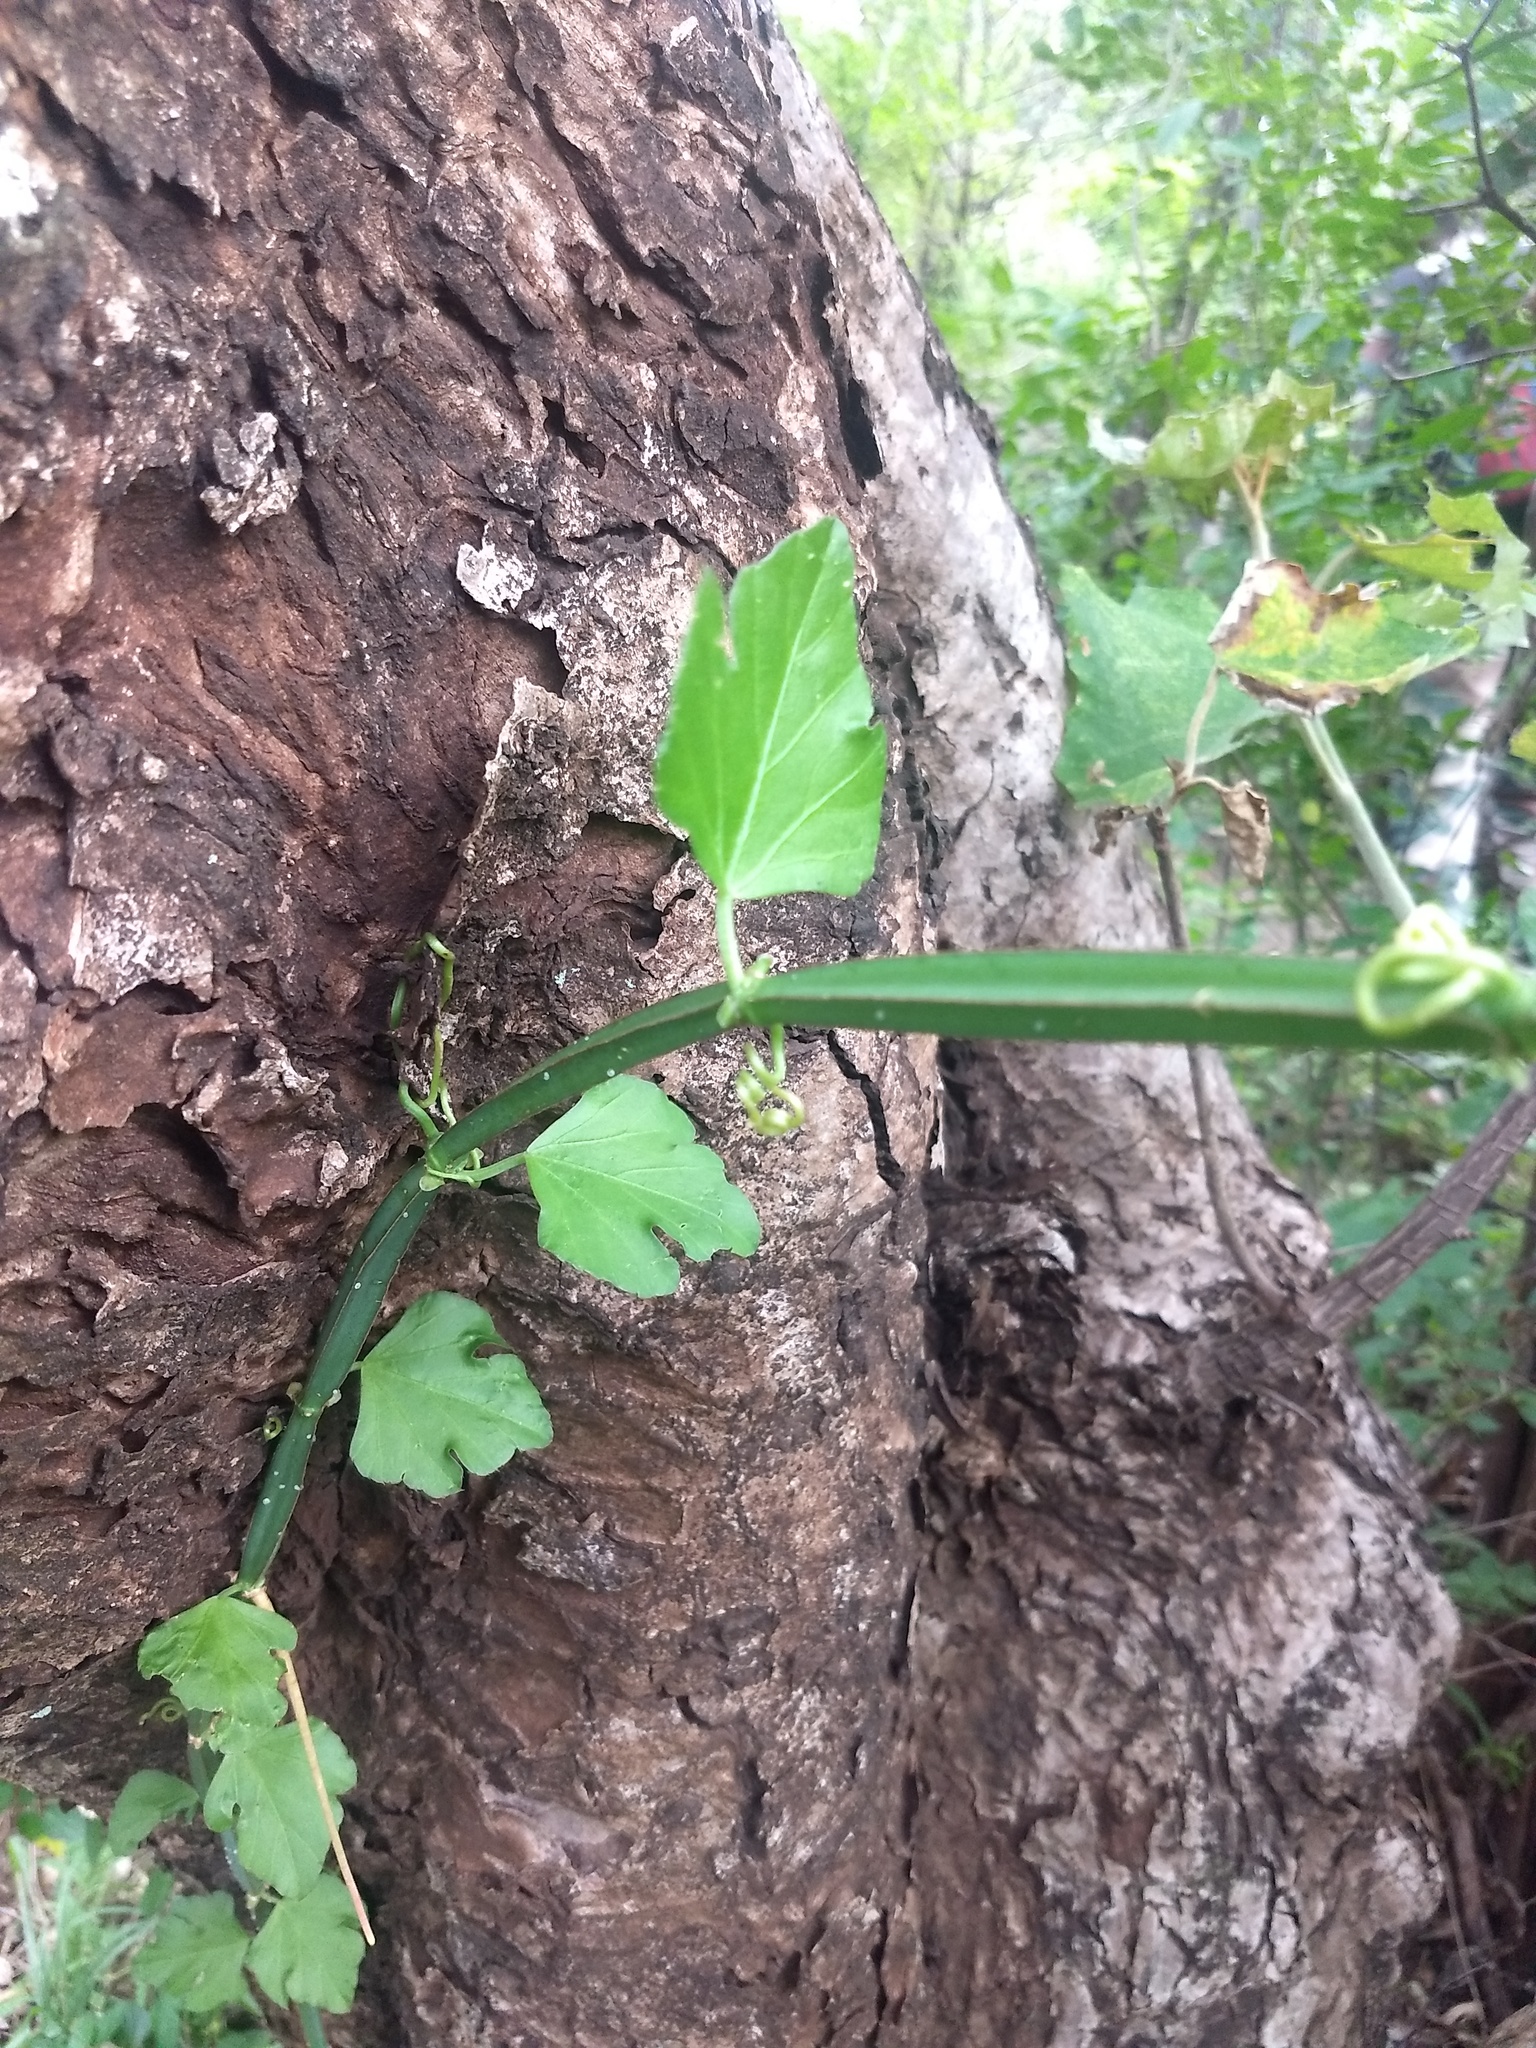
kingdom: Plantae
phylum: Tracheophyta
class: Magnoliopsida
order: Vitales
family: Vitaceae
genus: Cissus
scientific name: Cissus quadrangularis
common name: Veldt-grape
